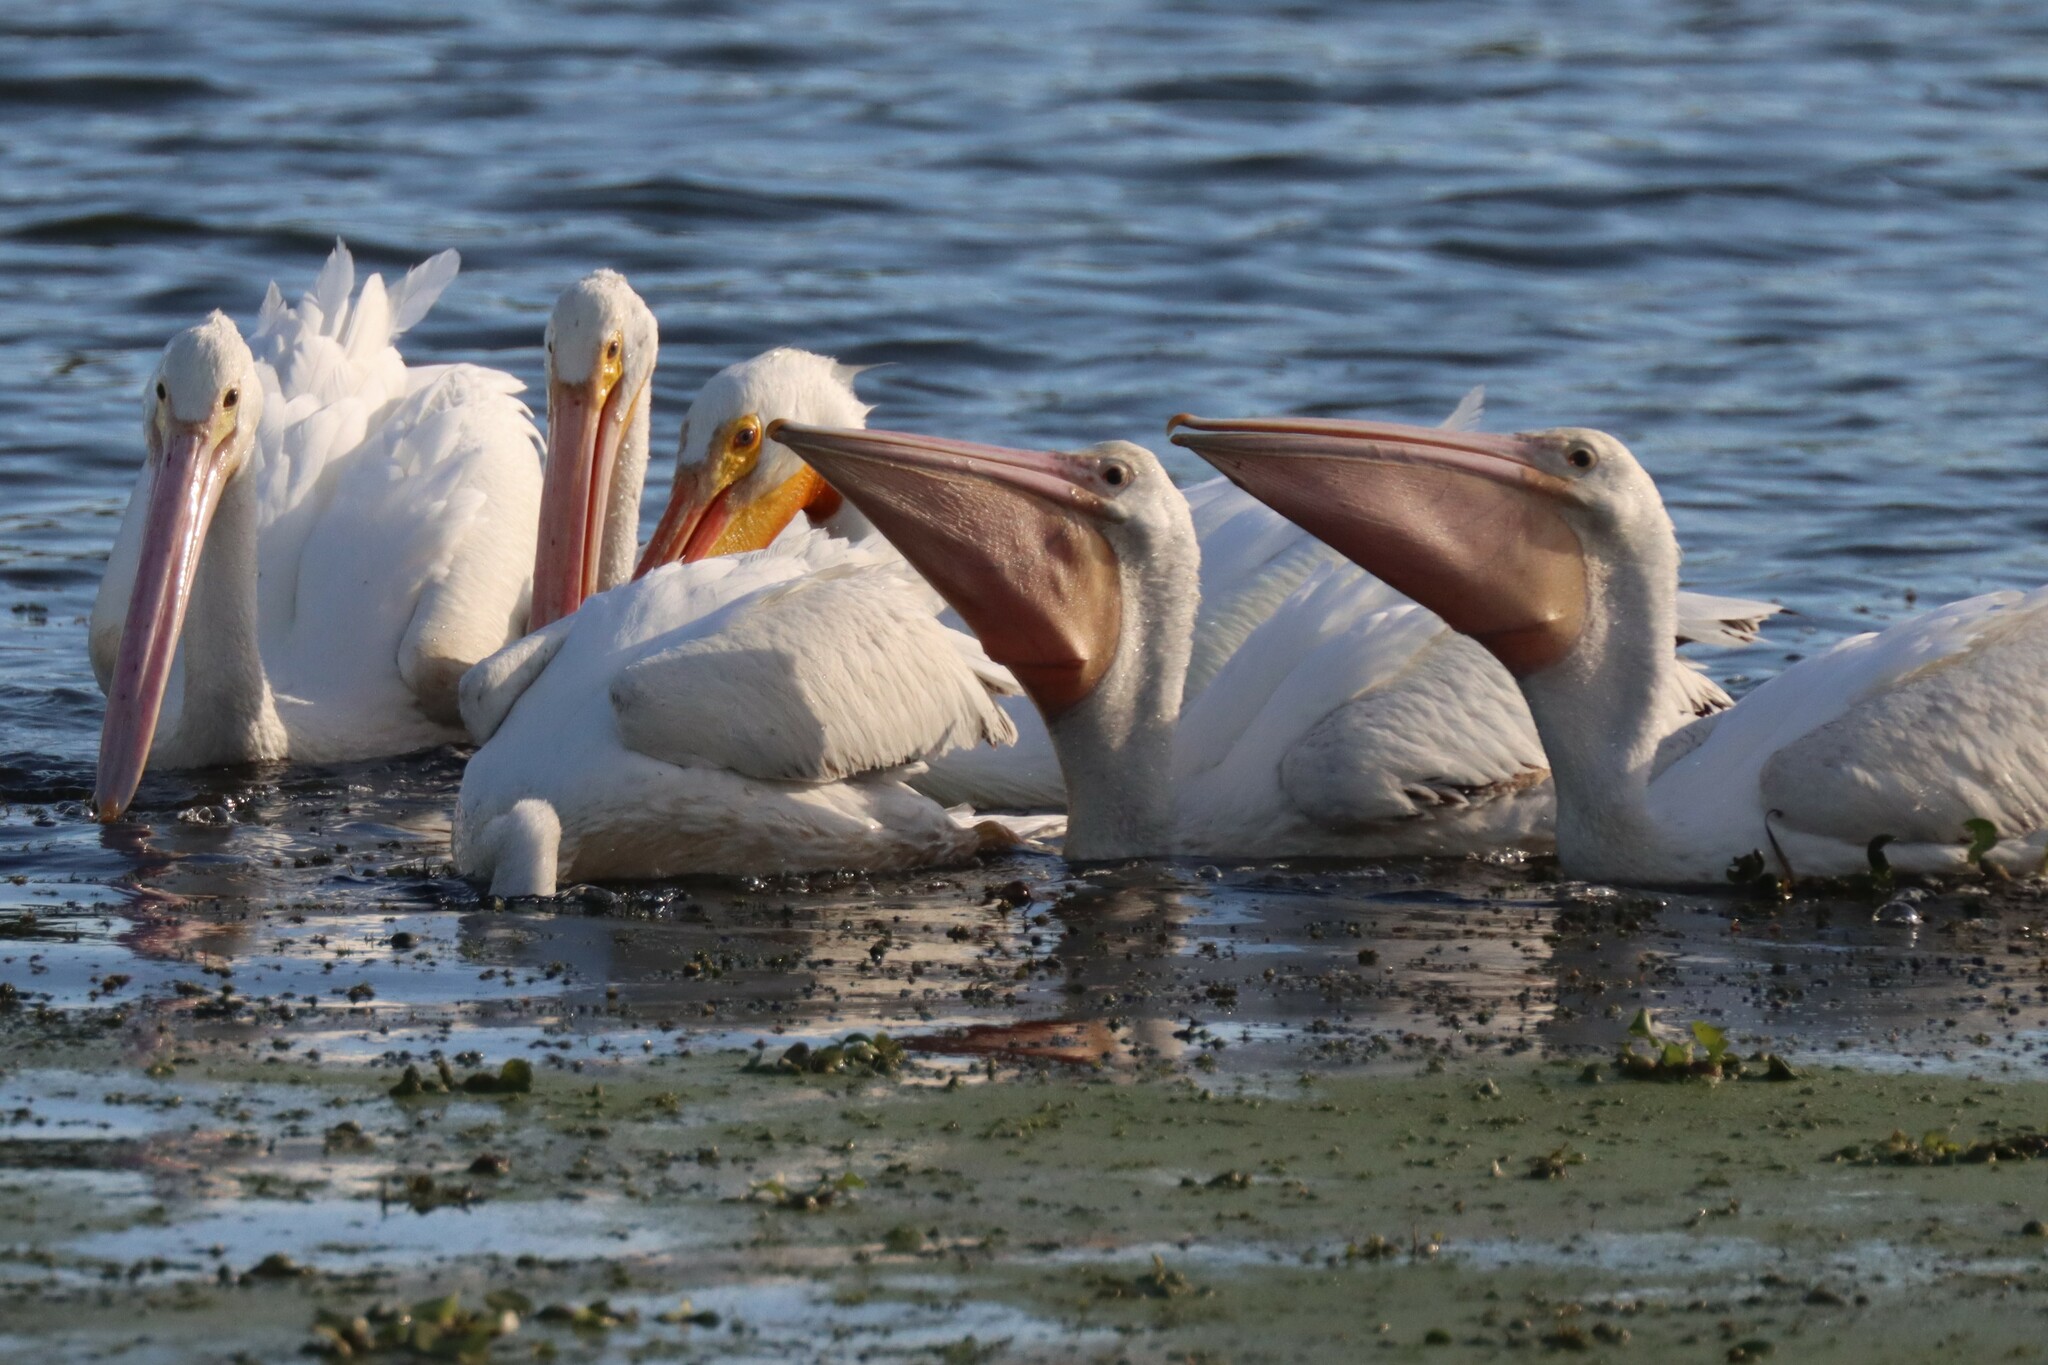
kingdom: Animalia
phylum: Chordata
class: Aves
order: Pelecaniformes
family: Pelecanidae
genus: Pelecanus
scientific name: Pelecanus erythrorhynchos
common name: American white pelican
